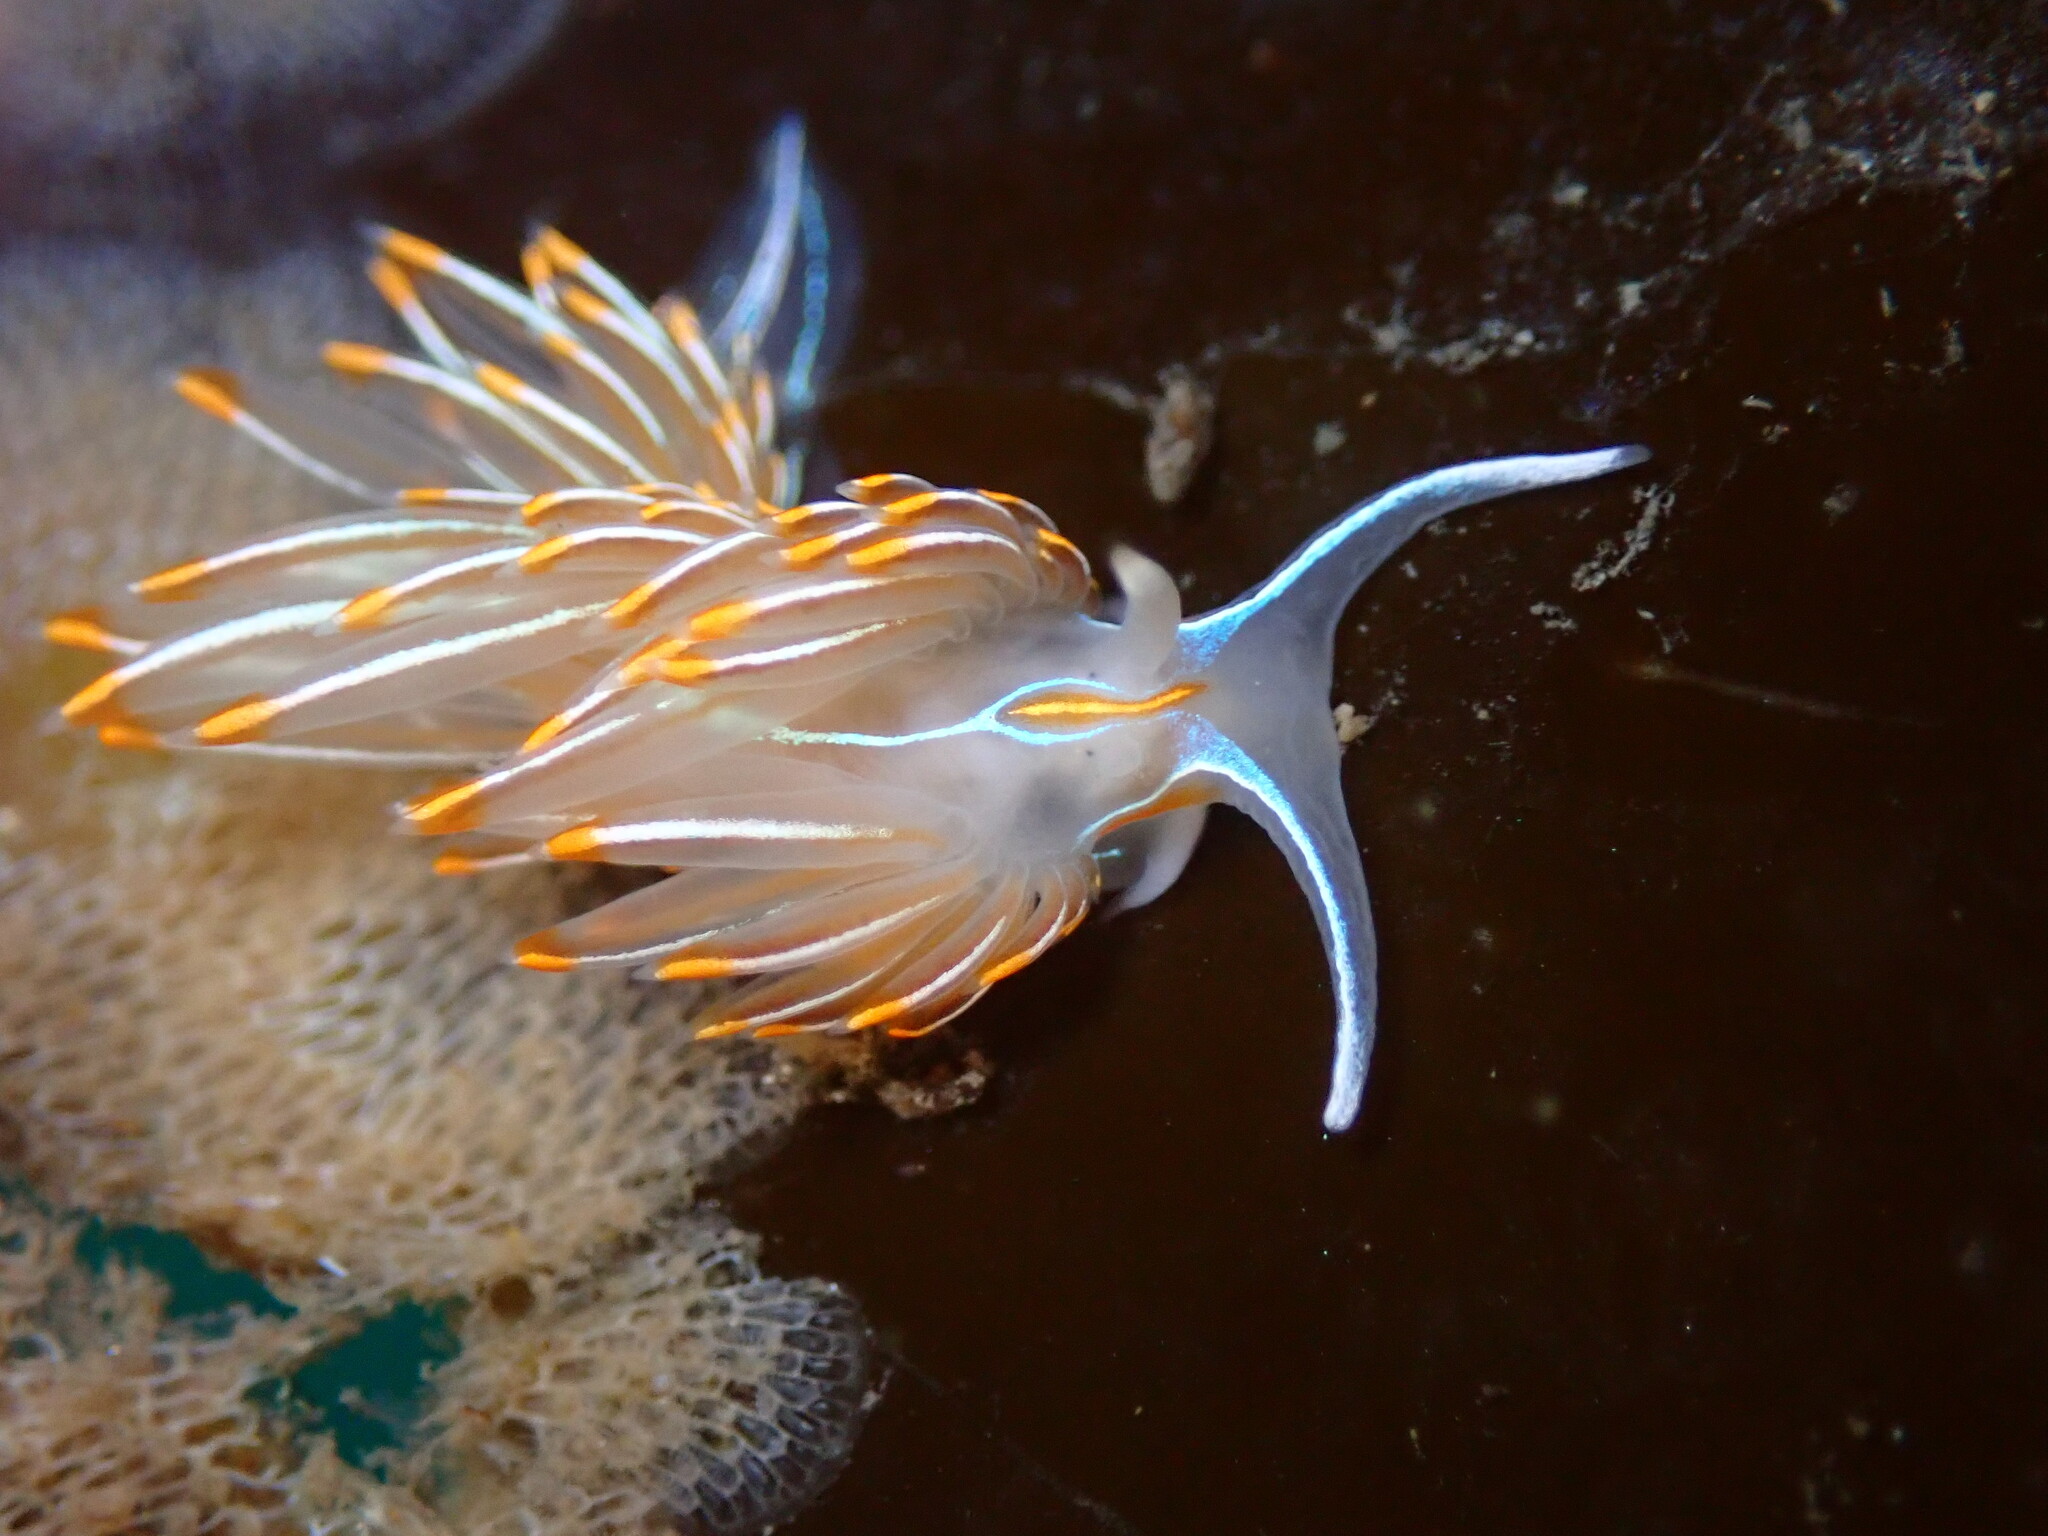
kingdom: Animalia
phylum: Mollusca
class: Gastropoda
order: Nudibranchia
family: Myrrhinidae
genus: Hermissenda
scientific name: Hermissenda crassicornis
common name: Hermissenda
